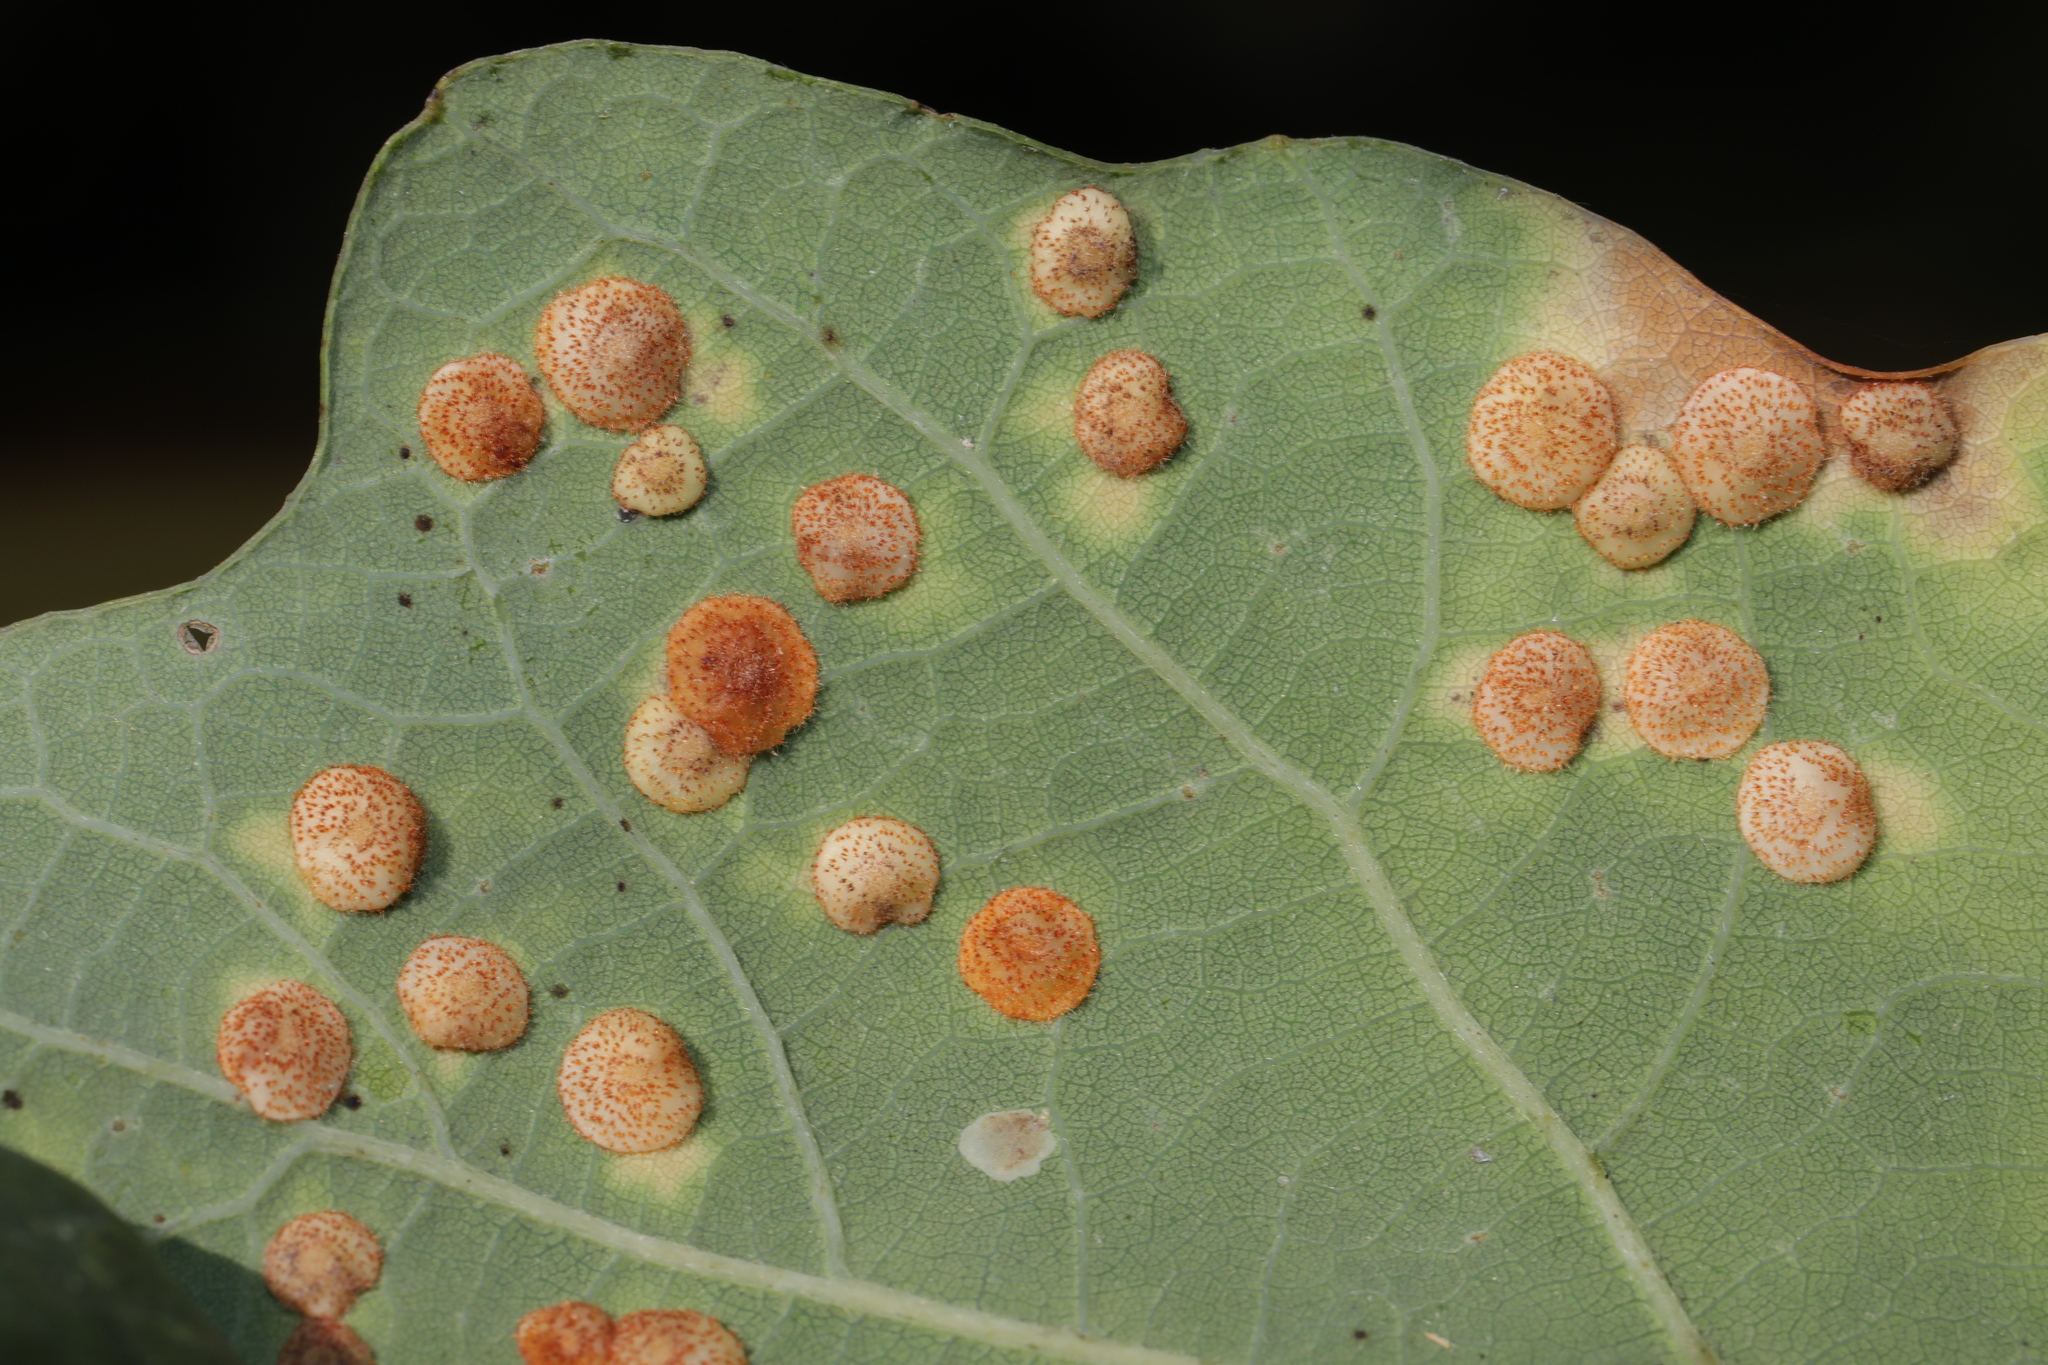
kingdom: Animalia
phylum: Arthropoda
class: Insecta
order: Hymenoptera
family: Cynipidae
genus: Neuroterus
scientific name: Neuroterus quercusbaccarum
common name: Common spangle gall
